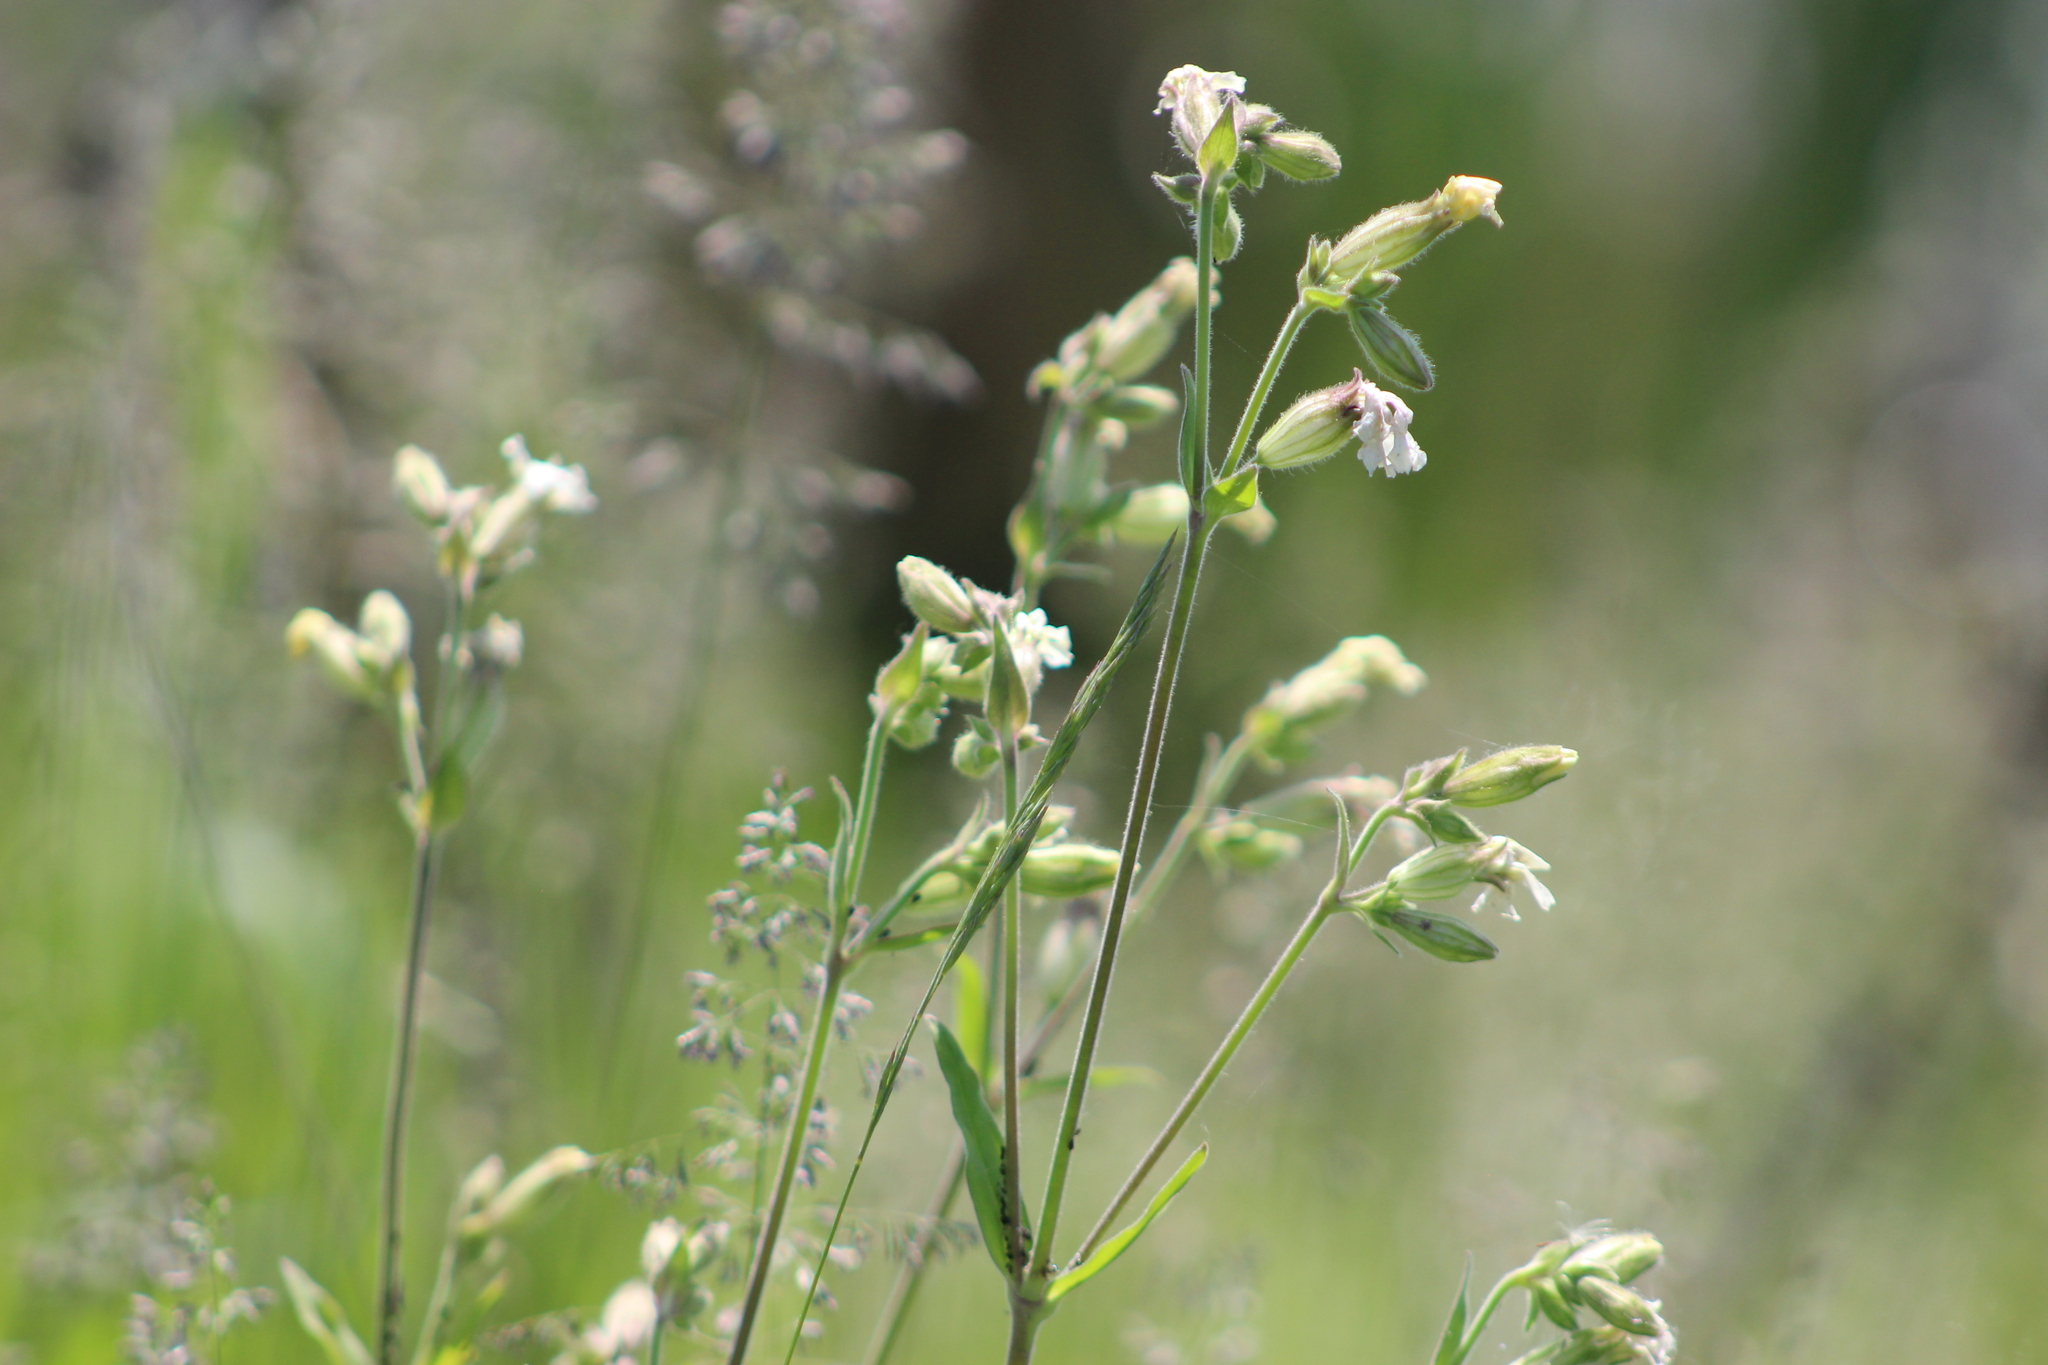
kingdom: Plantae
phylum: Tracheophyta
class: Magnoliopsida
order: Caryophyllales
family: Caryophyllaceae
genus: Silene
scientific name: Silene latifolia
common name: White campion
